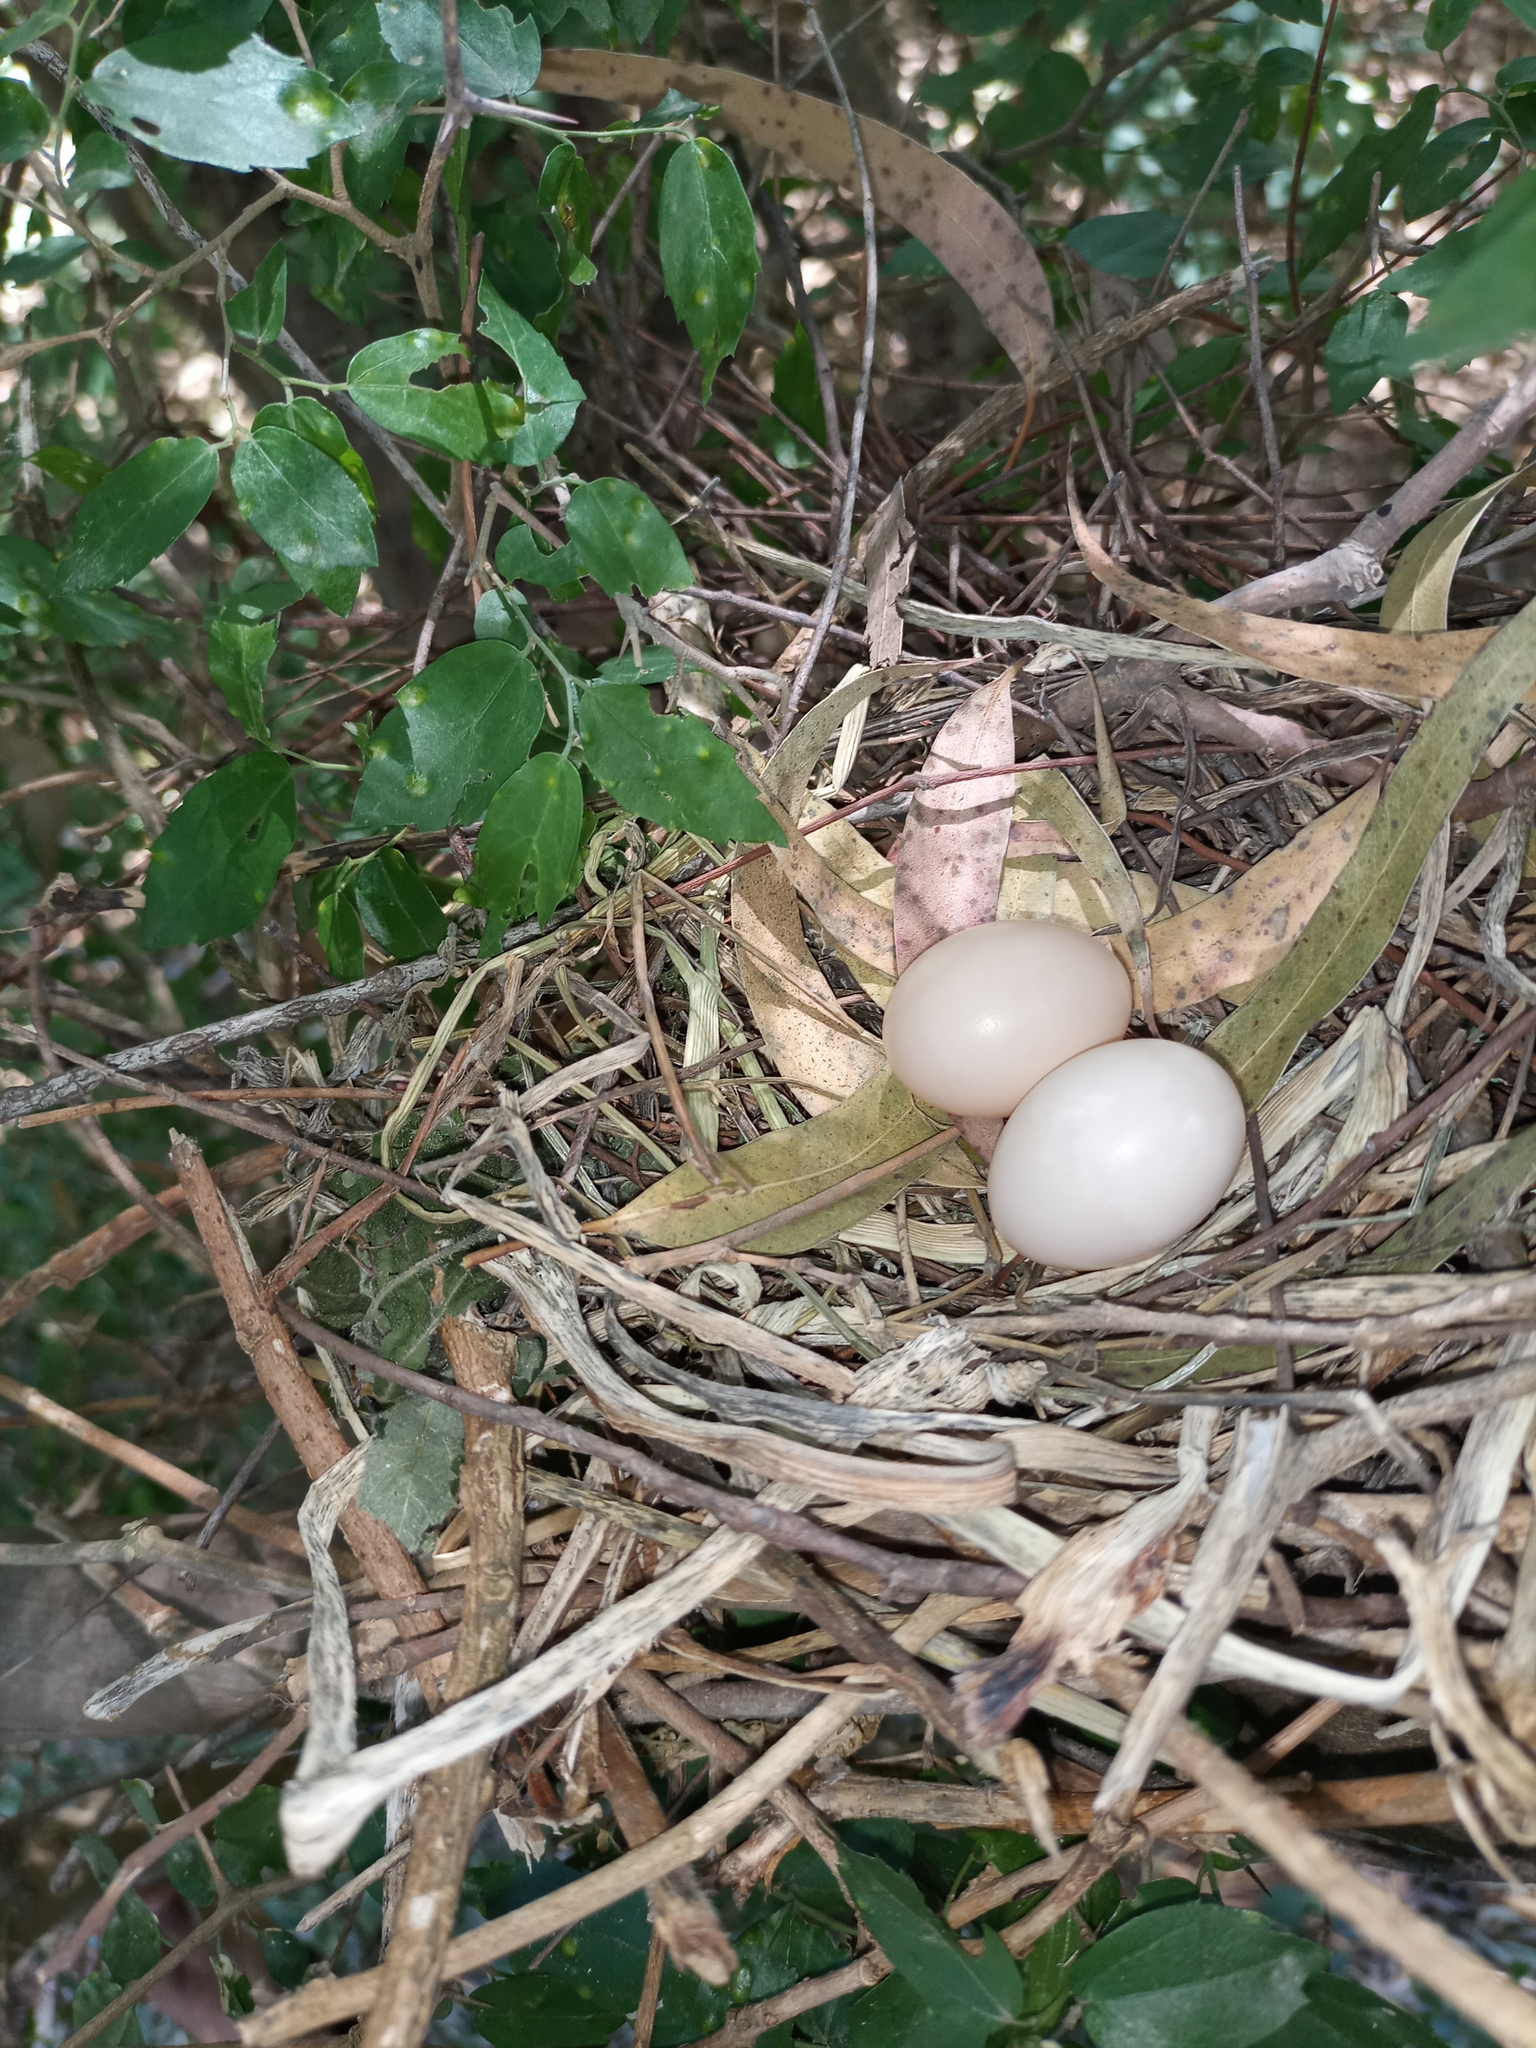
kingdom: Animalia
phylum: Chordata
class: Aves
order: Columbiformes
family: Columbidae
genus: Leptotila
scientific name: Leptotila verreauxi
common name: White-tipped dove
